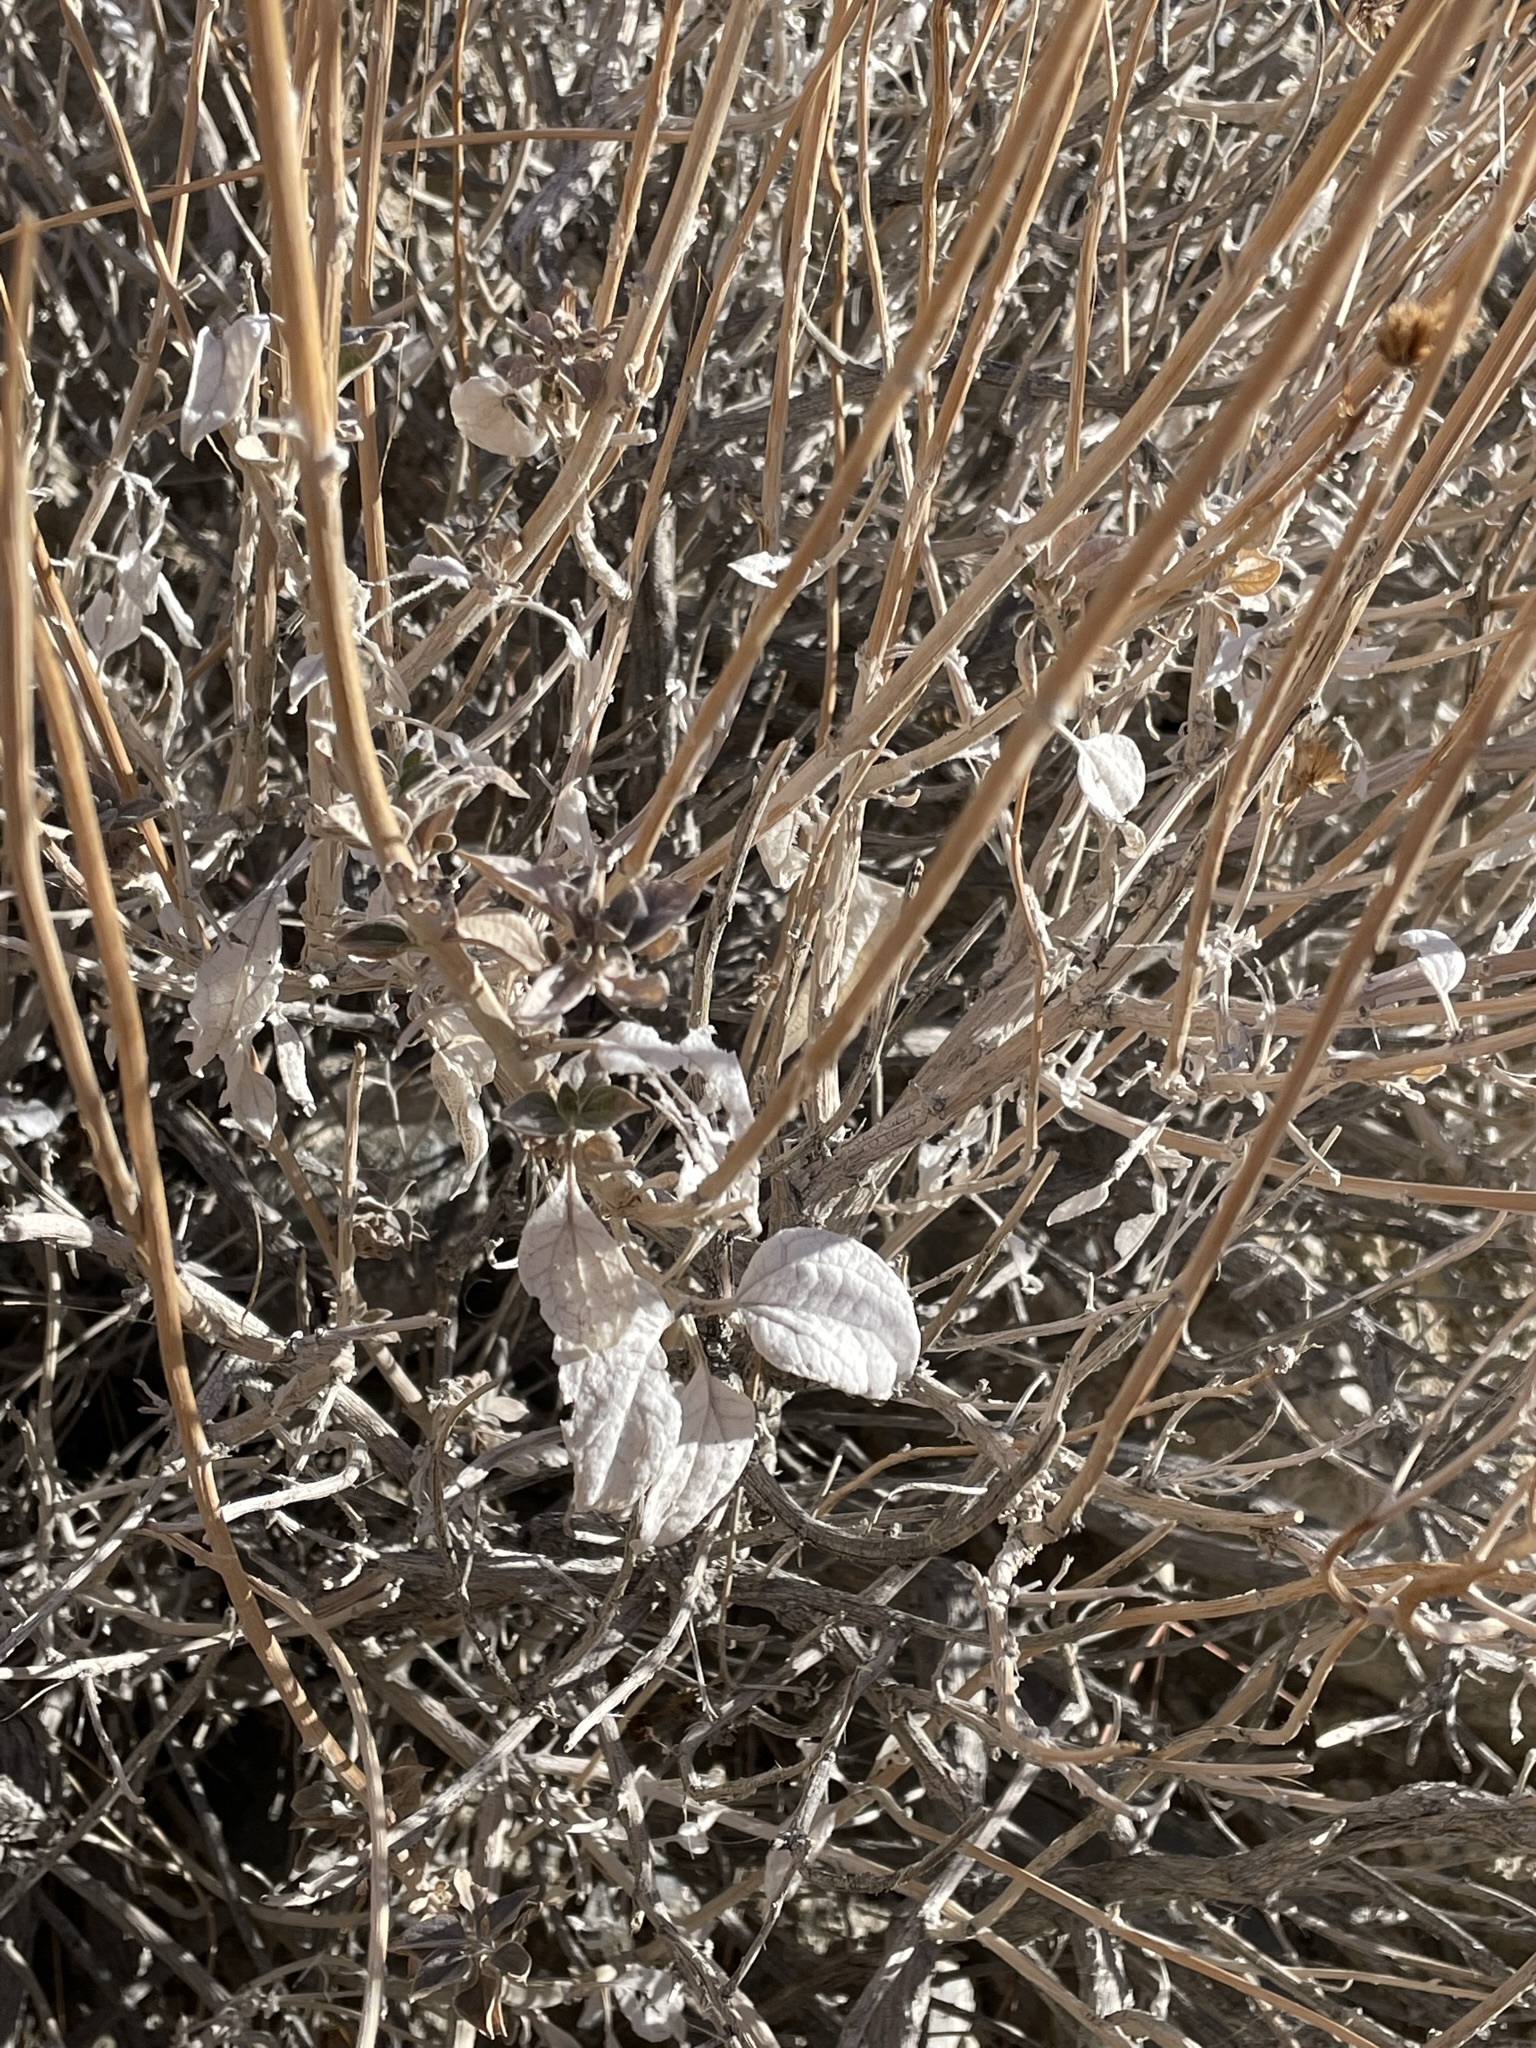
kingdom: Plantae
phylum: Tracheophyta
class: Magnoliopsida
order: Asterales
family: Asteraceae
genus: Bahiopsis
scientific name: Bahiopsis reticulata
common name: Death valley goldeneye
